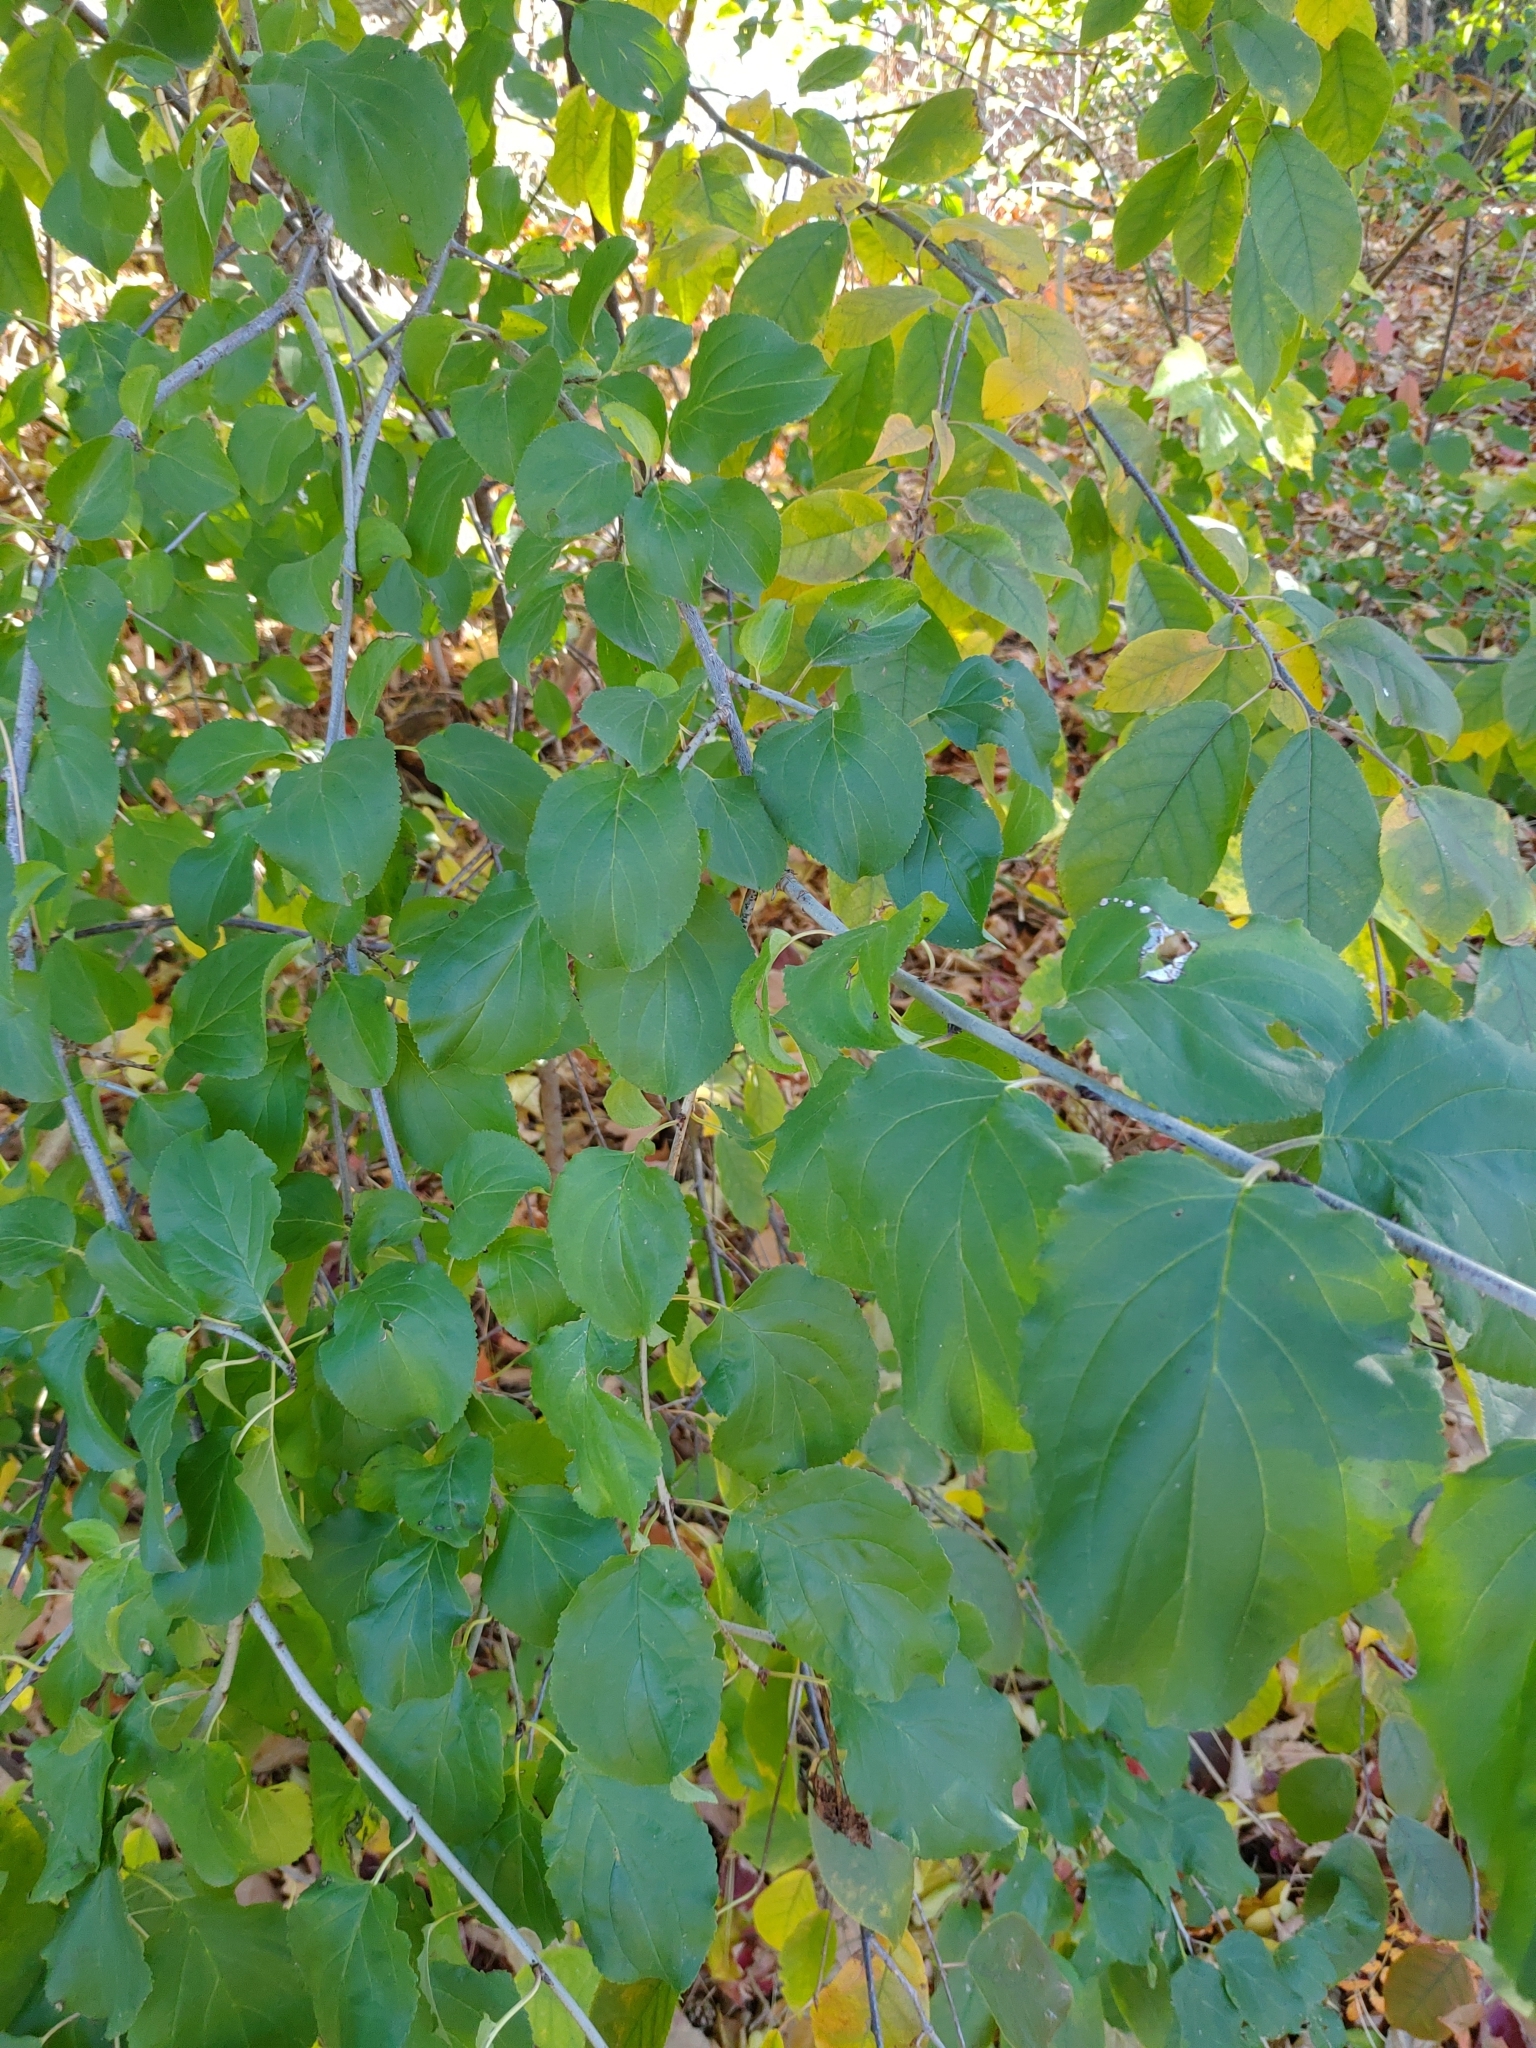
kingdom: Plantae
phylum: Tracheophyta
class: Magnoliopsida
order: Rosales
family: Rhamnaceae
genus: Rhamnus
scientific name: Rhamnus cathartica
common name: Common buckthorn
